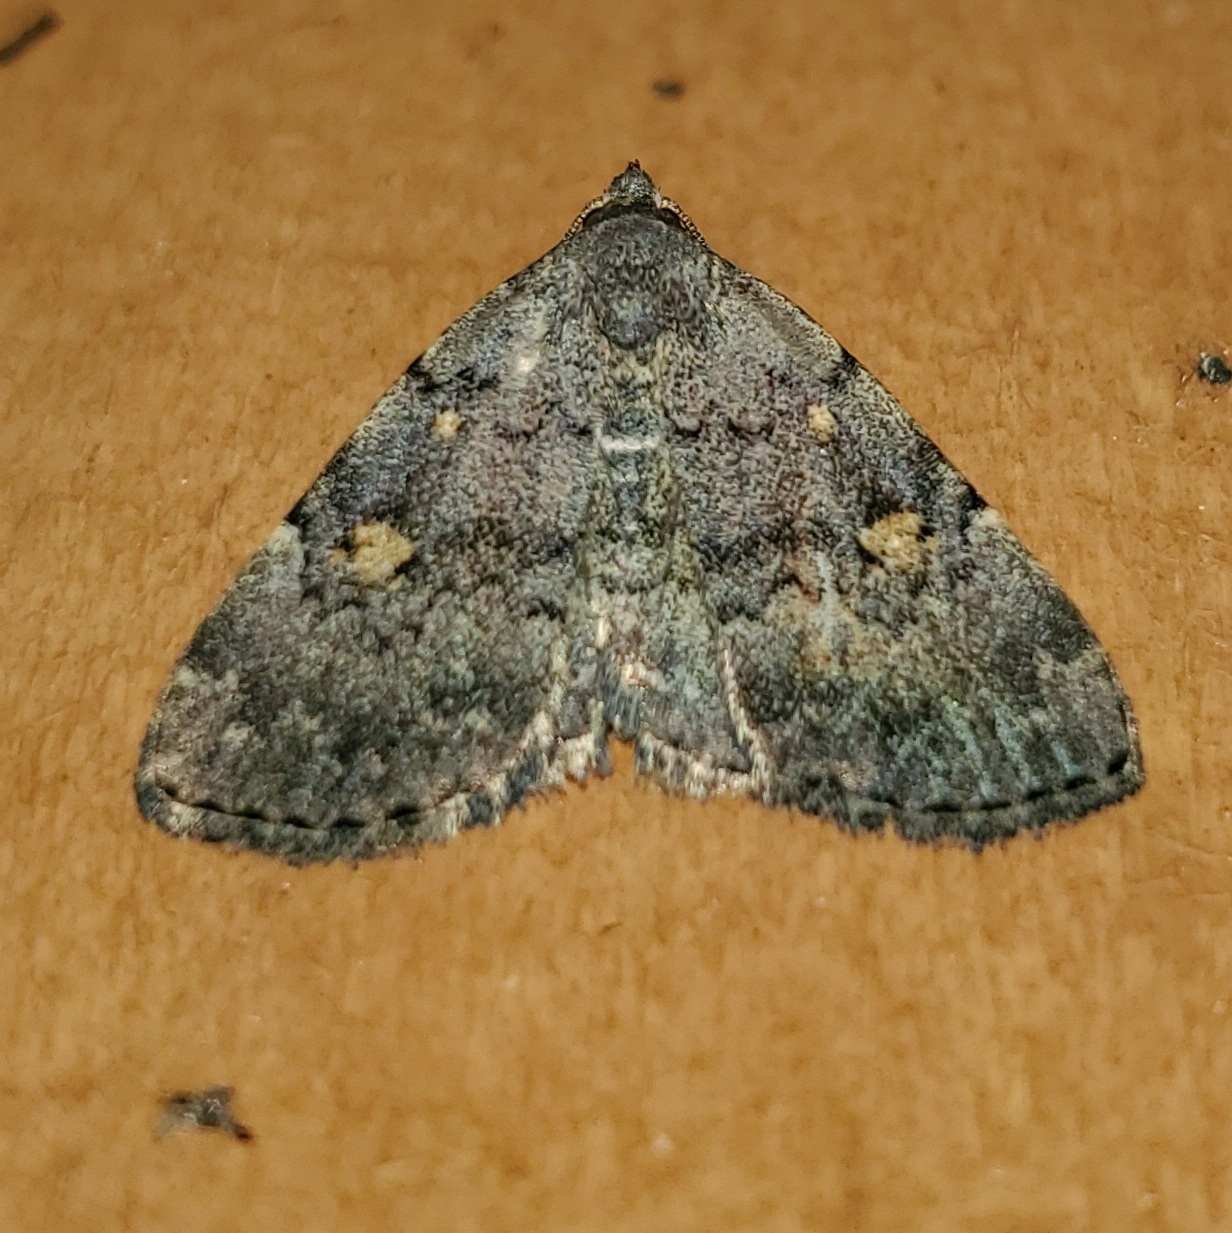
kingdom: Animalia
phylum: Arthropoda
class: Insecta
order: Lepidoptera
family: Erebidae
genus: Idia
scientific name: Idia aemula
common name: Common idia moth
